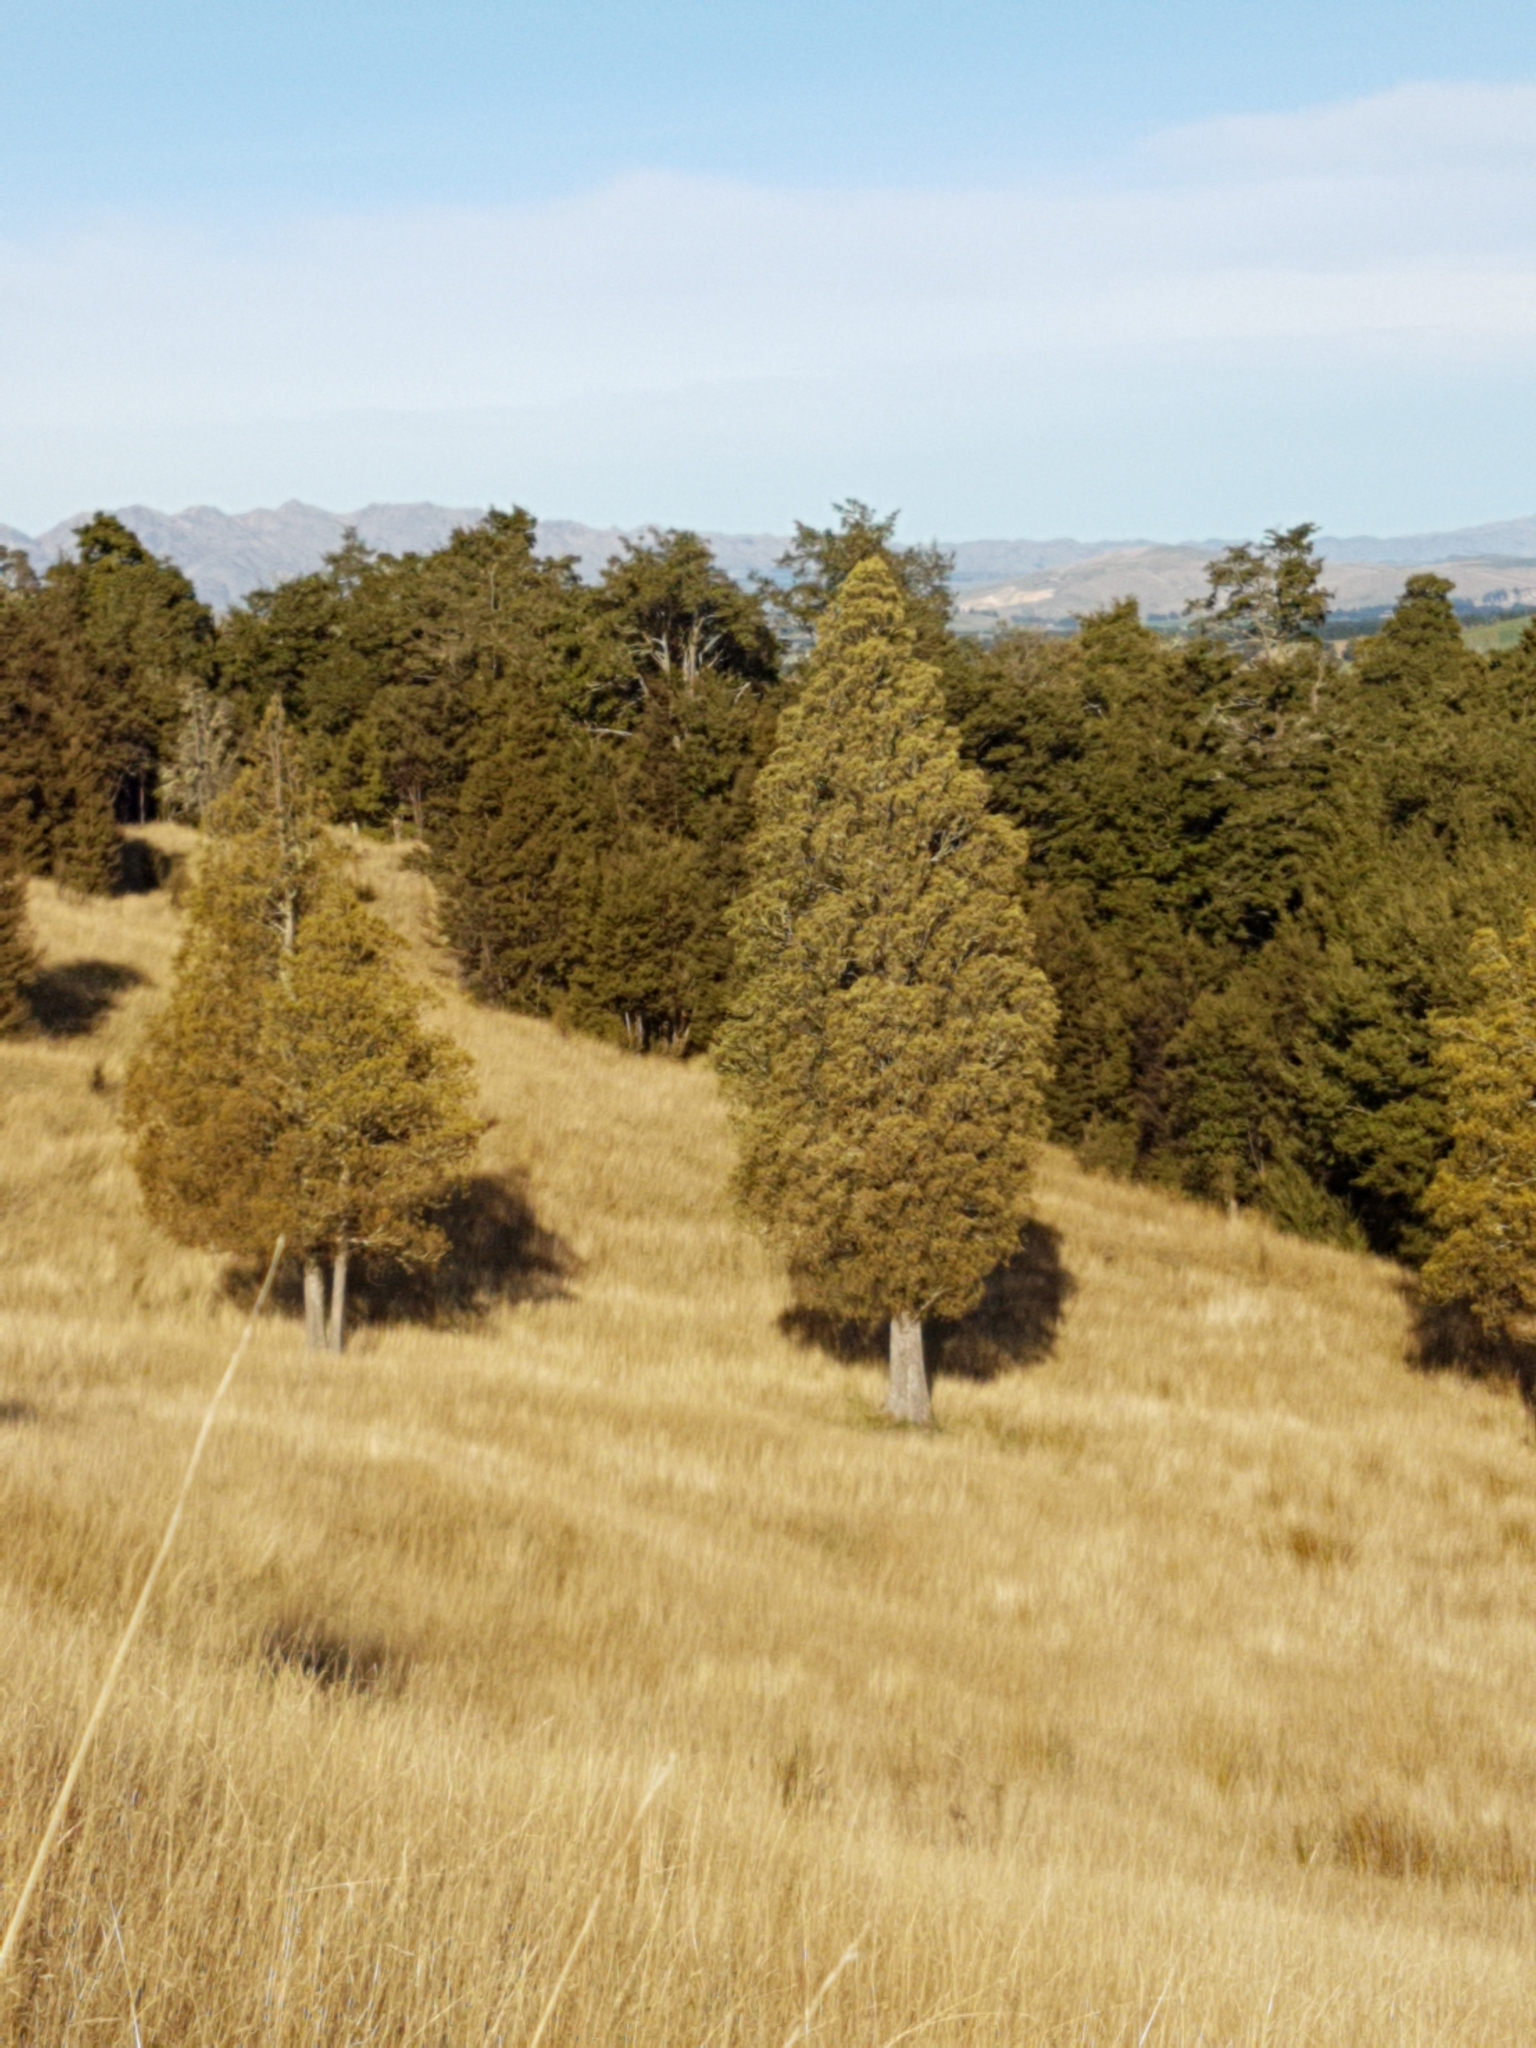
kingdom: Plantae
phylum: Tracheophyta
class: Pinopsida
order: Pinales
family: Podocarpaceae
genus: Dacrycarpus
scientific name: Dacrycarpus dacrydioides
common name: White pine
